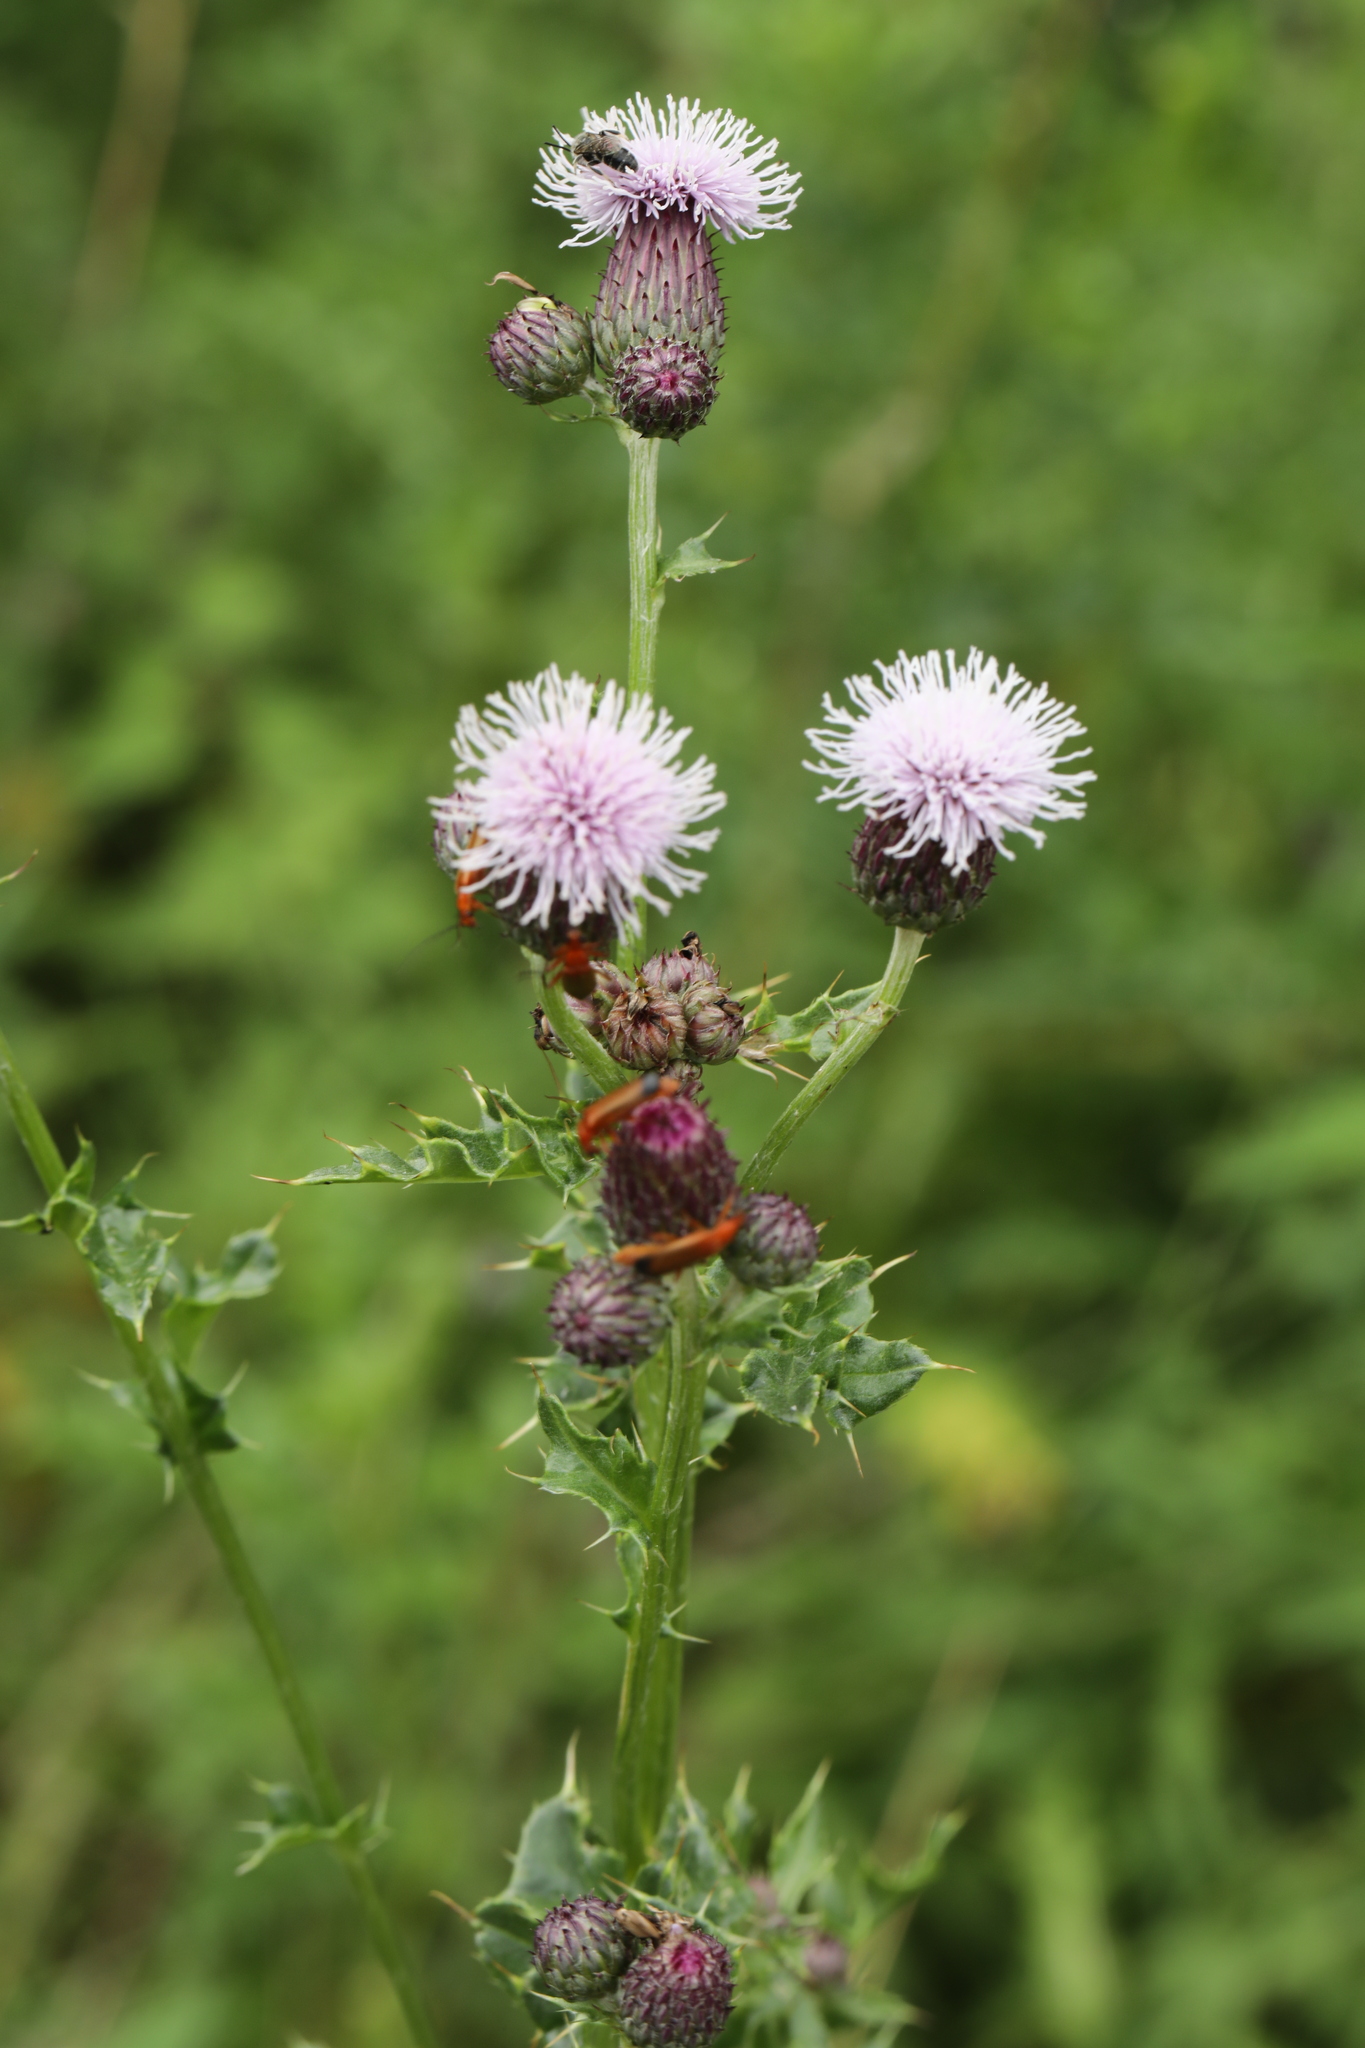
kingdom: Plantae
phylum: Tracheophyta
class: Magnoliopsida
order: Asterales
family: Asteraceae
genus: Cirsium
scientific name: Cirsium arvense
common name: Creeping thistle
